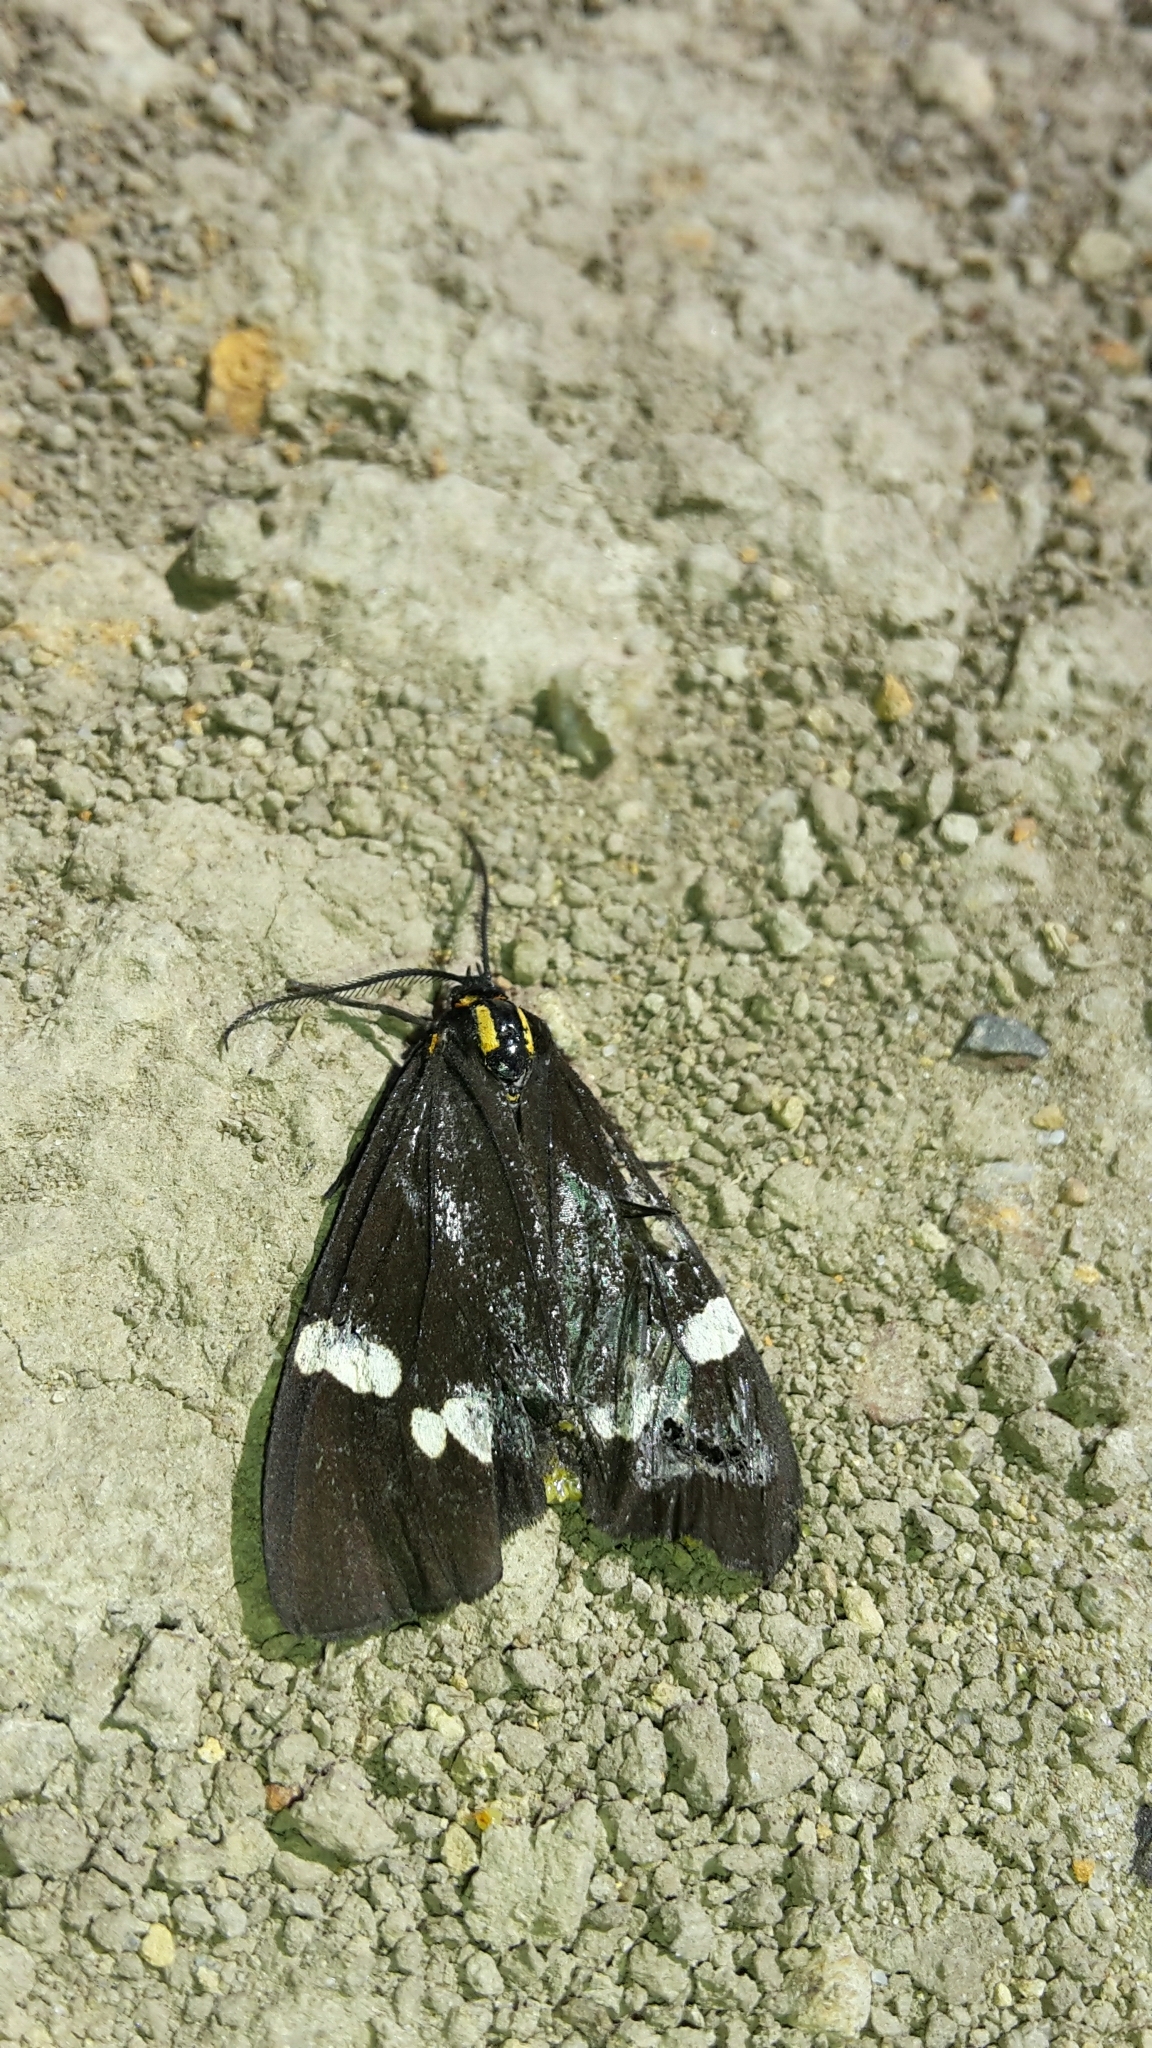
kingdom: Animalia
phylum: Arthropoda
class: Insecta
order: Lepidoptera
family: Erebidae
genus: Nyctemera
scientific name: Nyctemera annulatum
